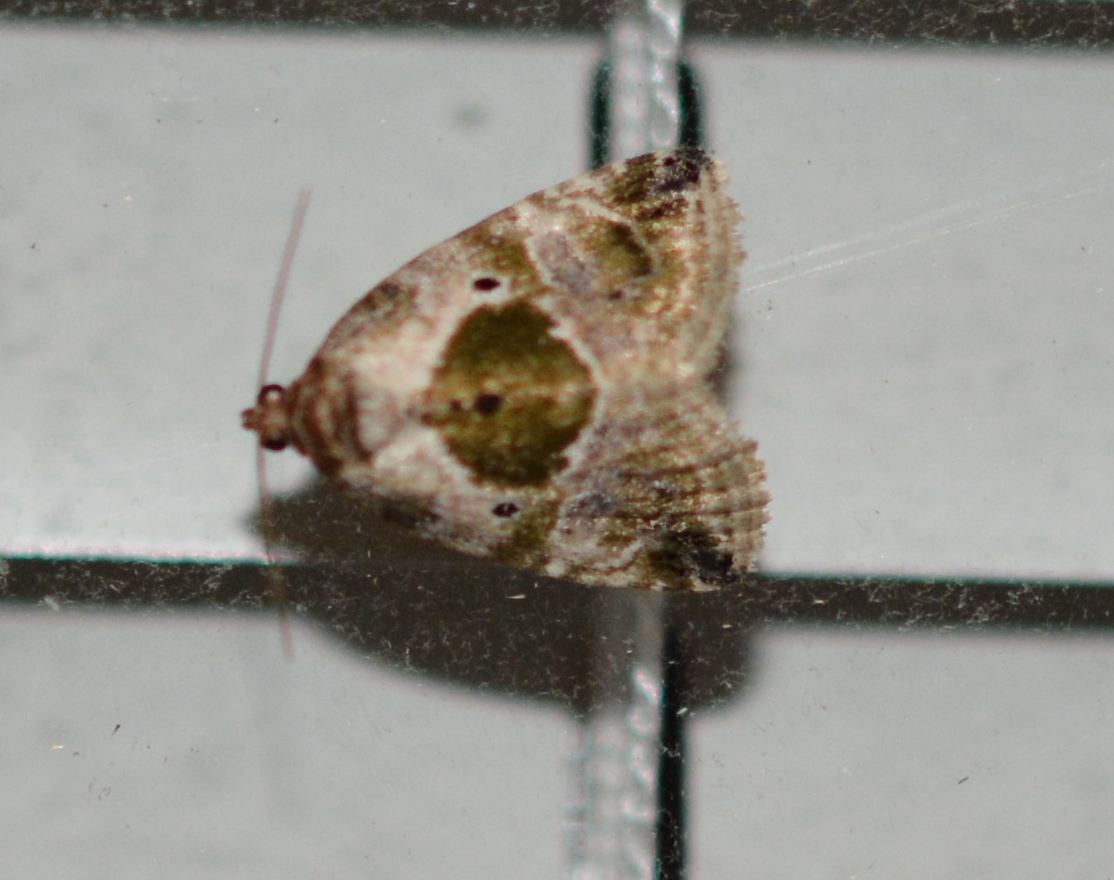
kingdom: Animalia
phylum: Arthropoda
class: Insecta
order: Lepidoptera
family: Noctuidae
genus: Maliattha
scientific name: Maliattha synochitis
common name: Black-dotted glyph
